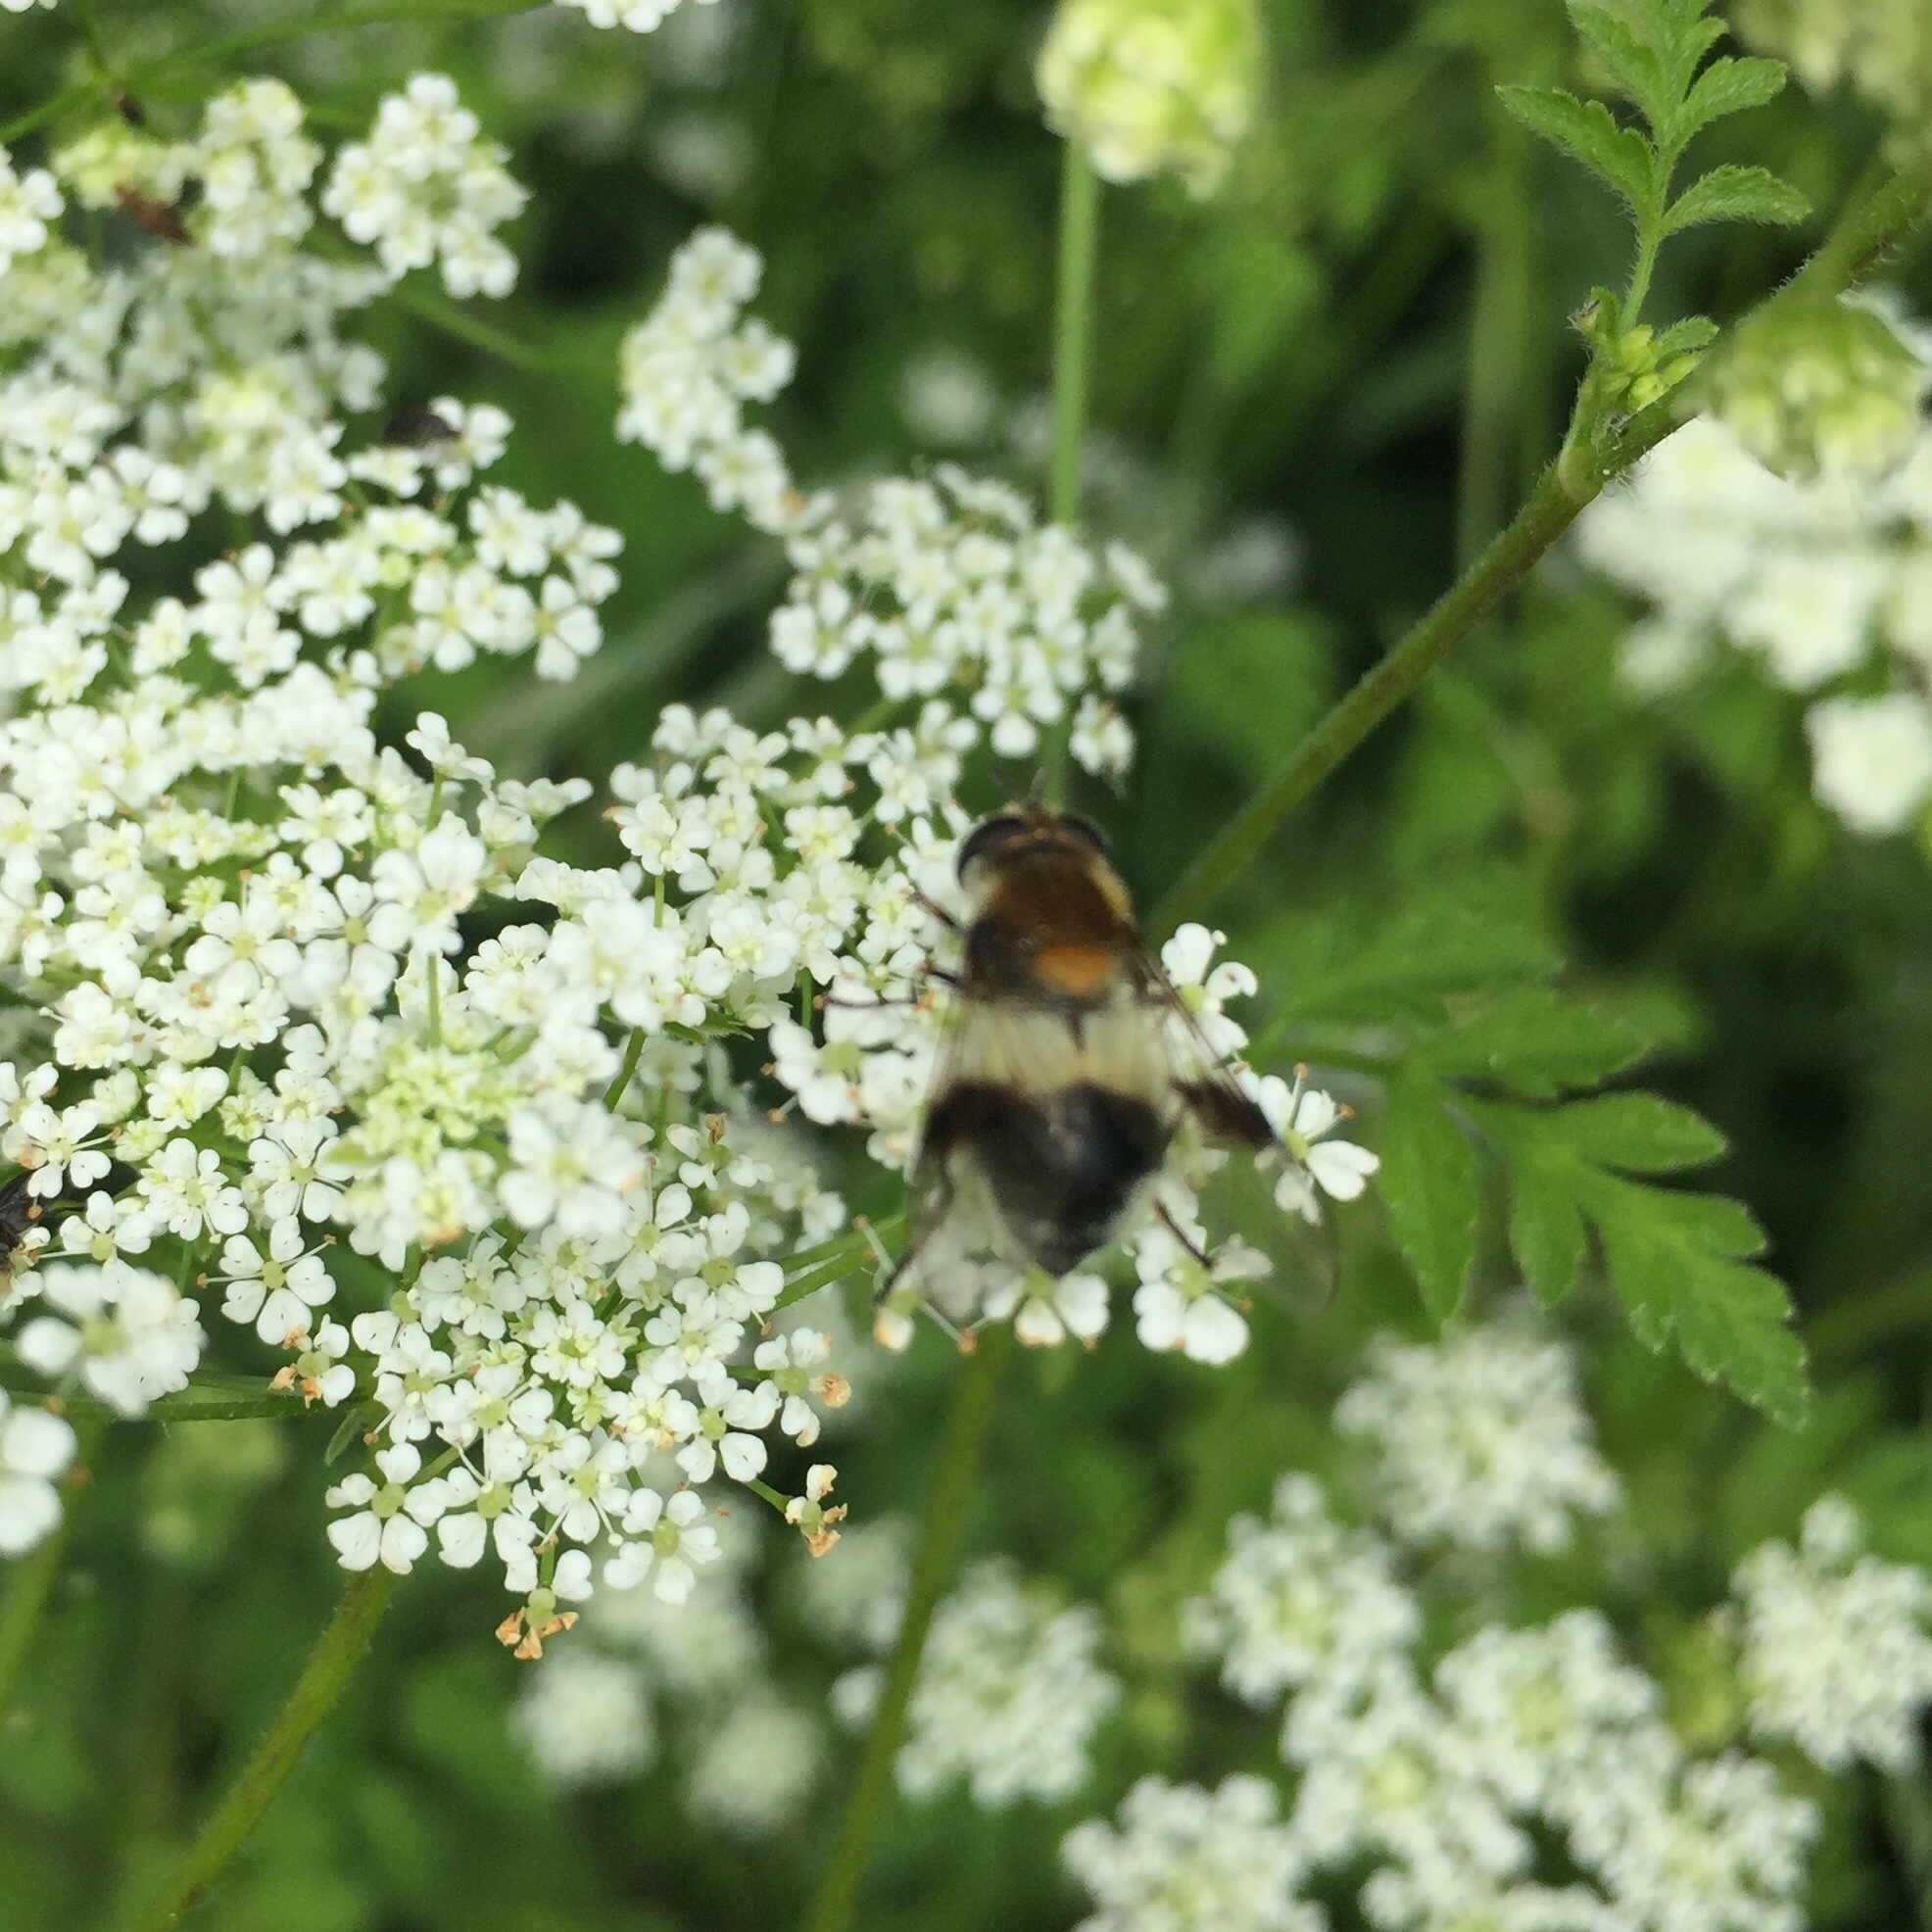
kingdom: Animalia
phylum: Arthropoda
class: Insecta
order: Diptera
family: Syrphidae
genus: Leucozona
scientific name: Leucozona lucorum
